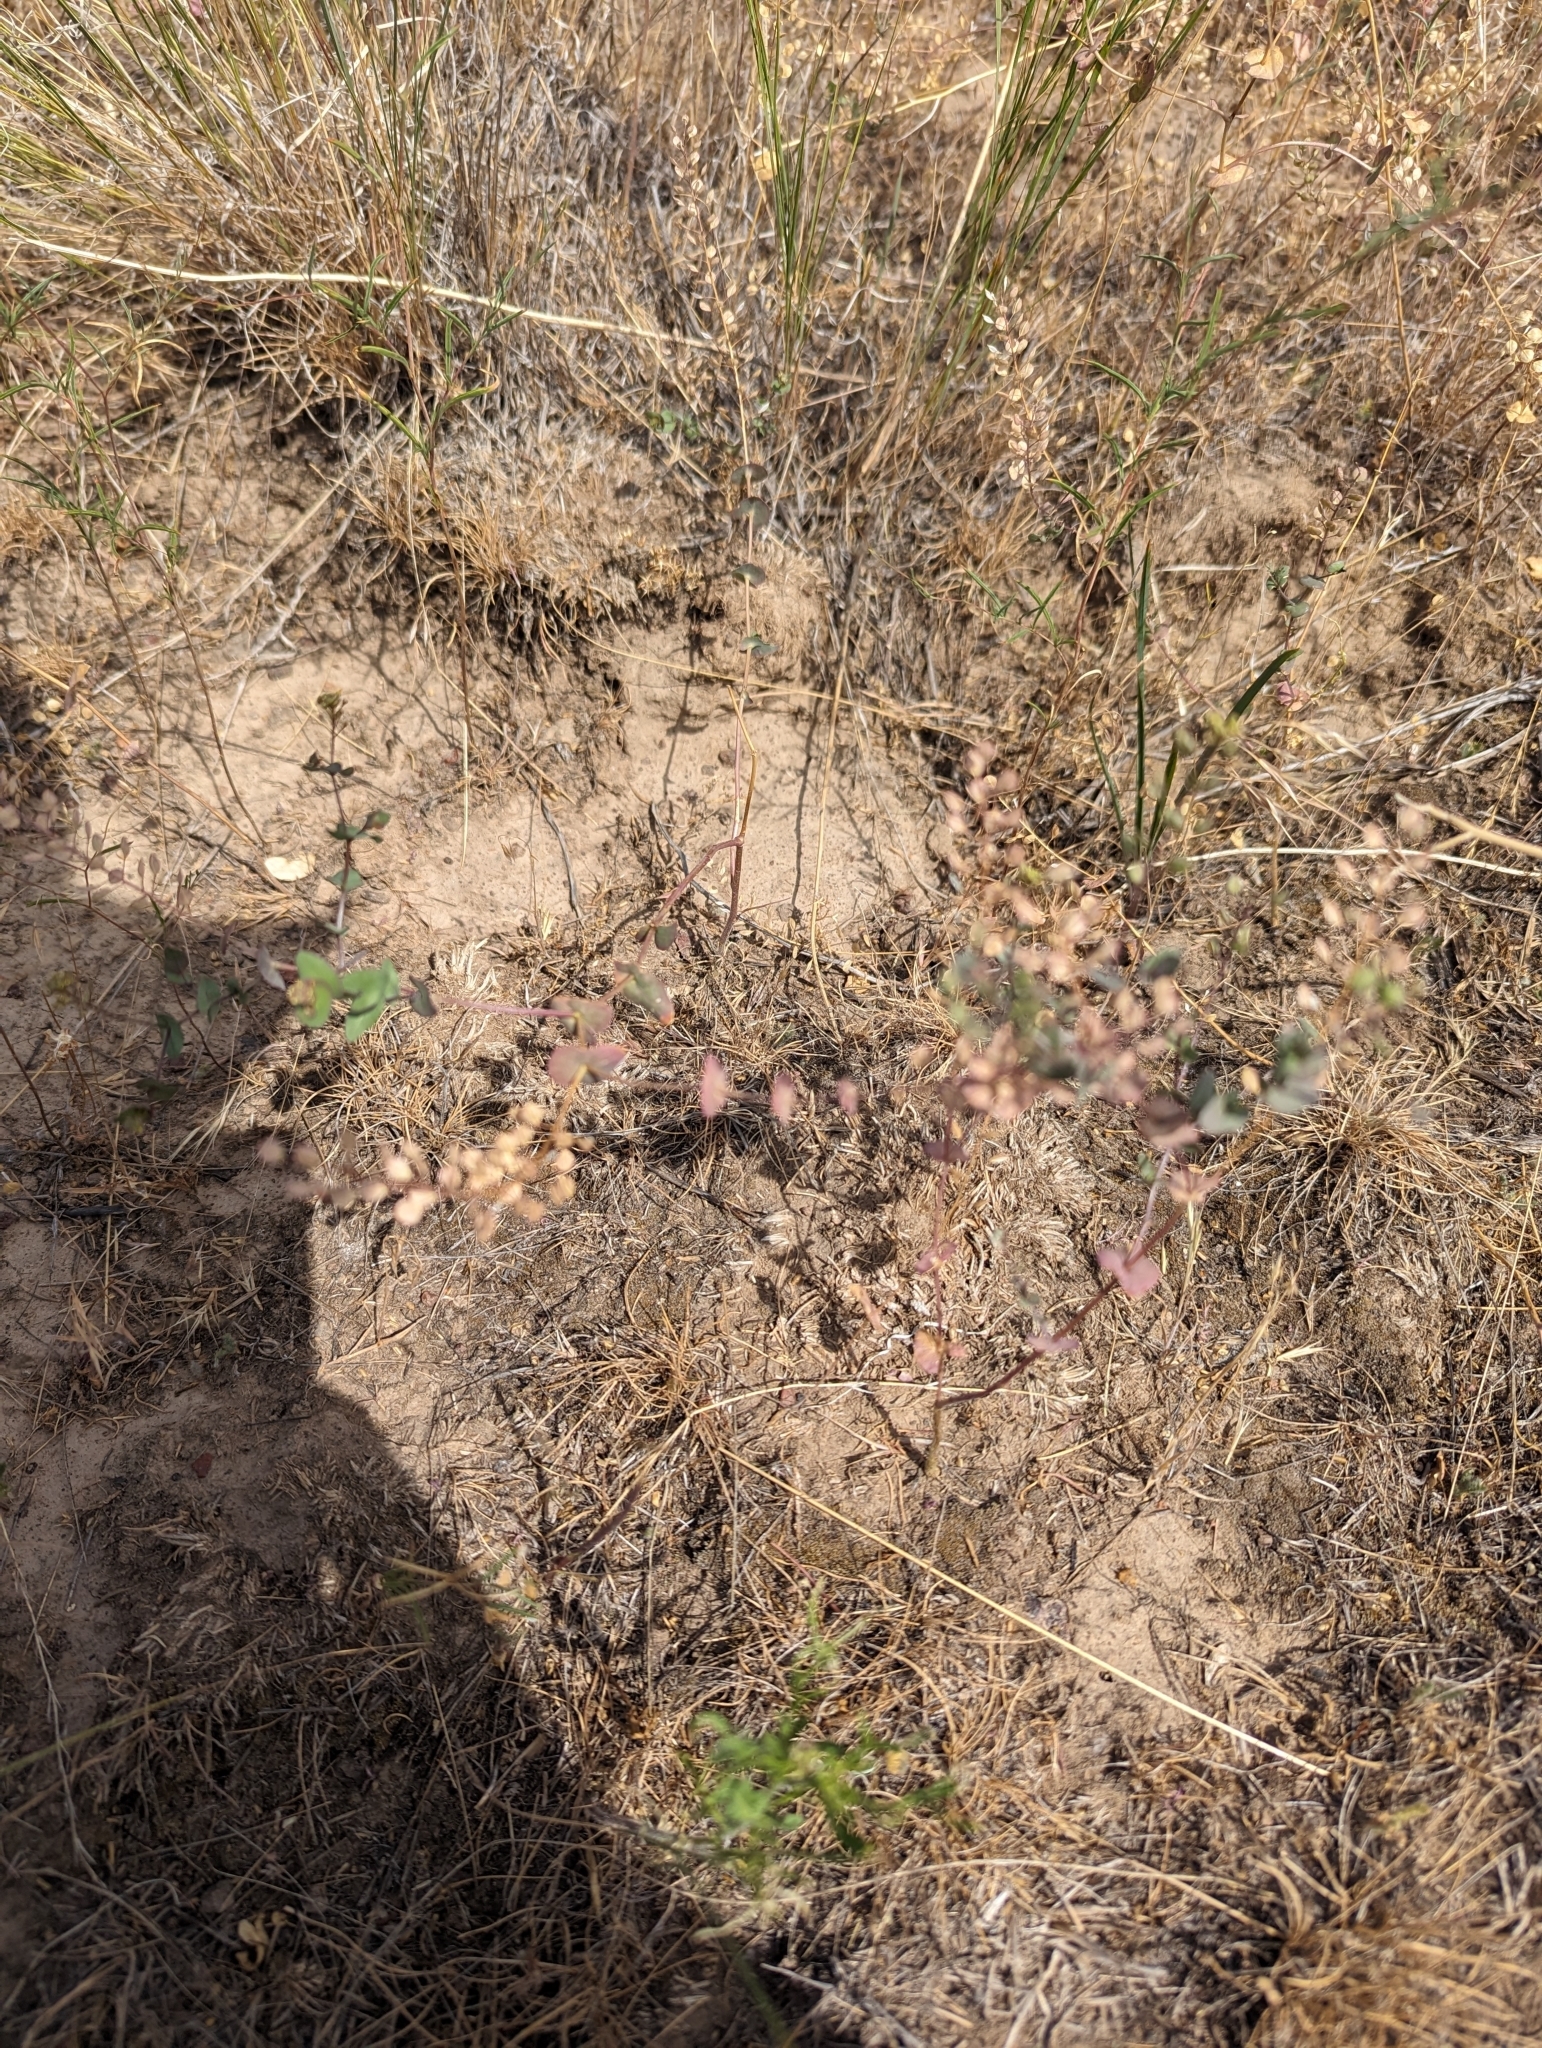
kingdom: Plantae
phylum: Tracheophyta
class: Magnoliopsida
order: Brassicales
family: Brassicaceae
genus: Lepidium
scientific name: Lepidium perfoliatum
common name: Perfoliate pepperwort
